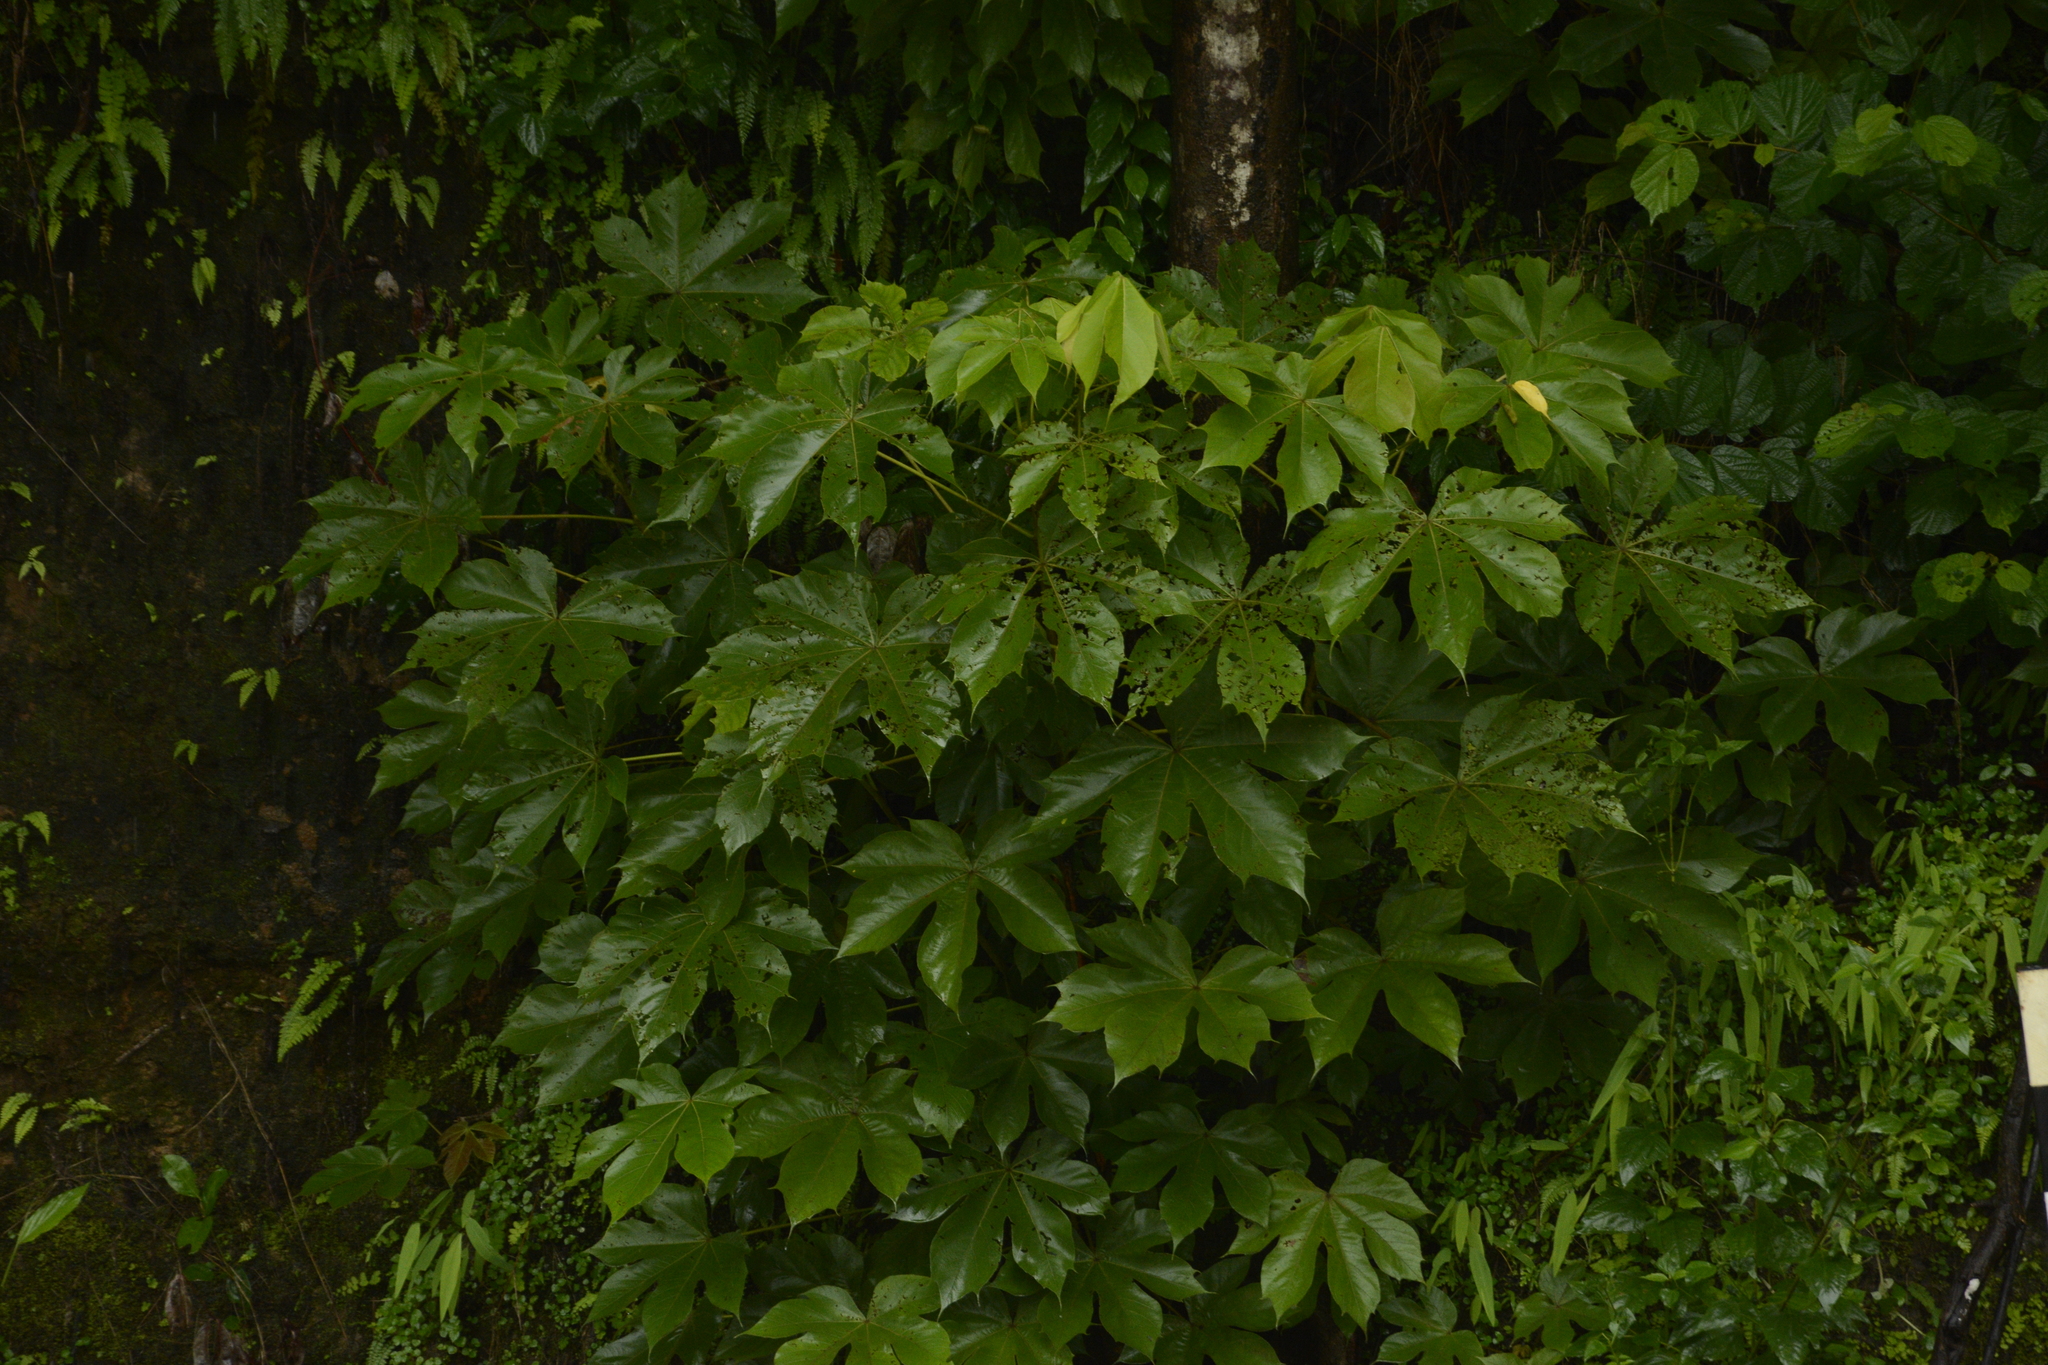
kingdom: Plantae
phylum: Tracheophyta
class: Magnoliopsida
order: Malvales
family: Malvaceae
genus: Sterculia
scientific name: Sterculia villosa
